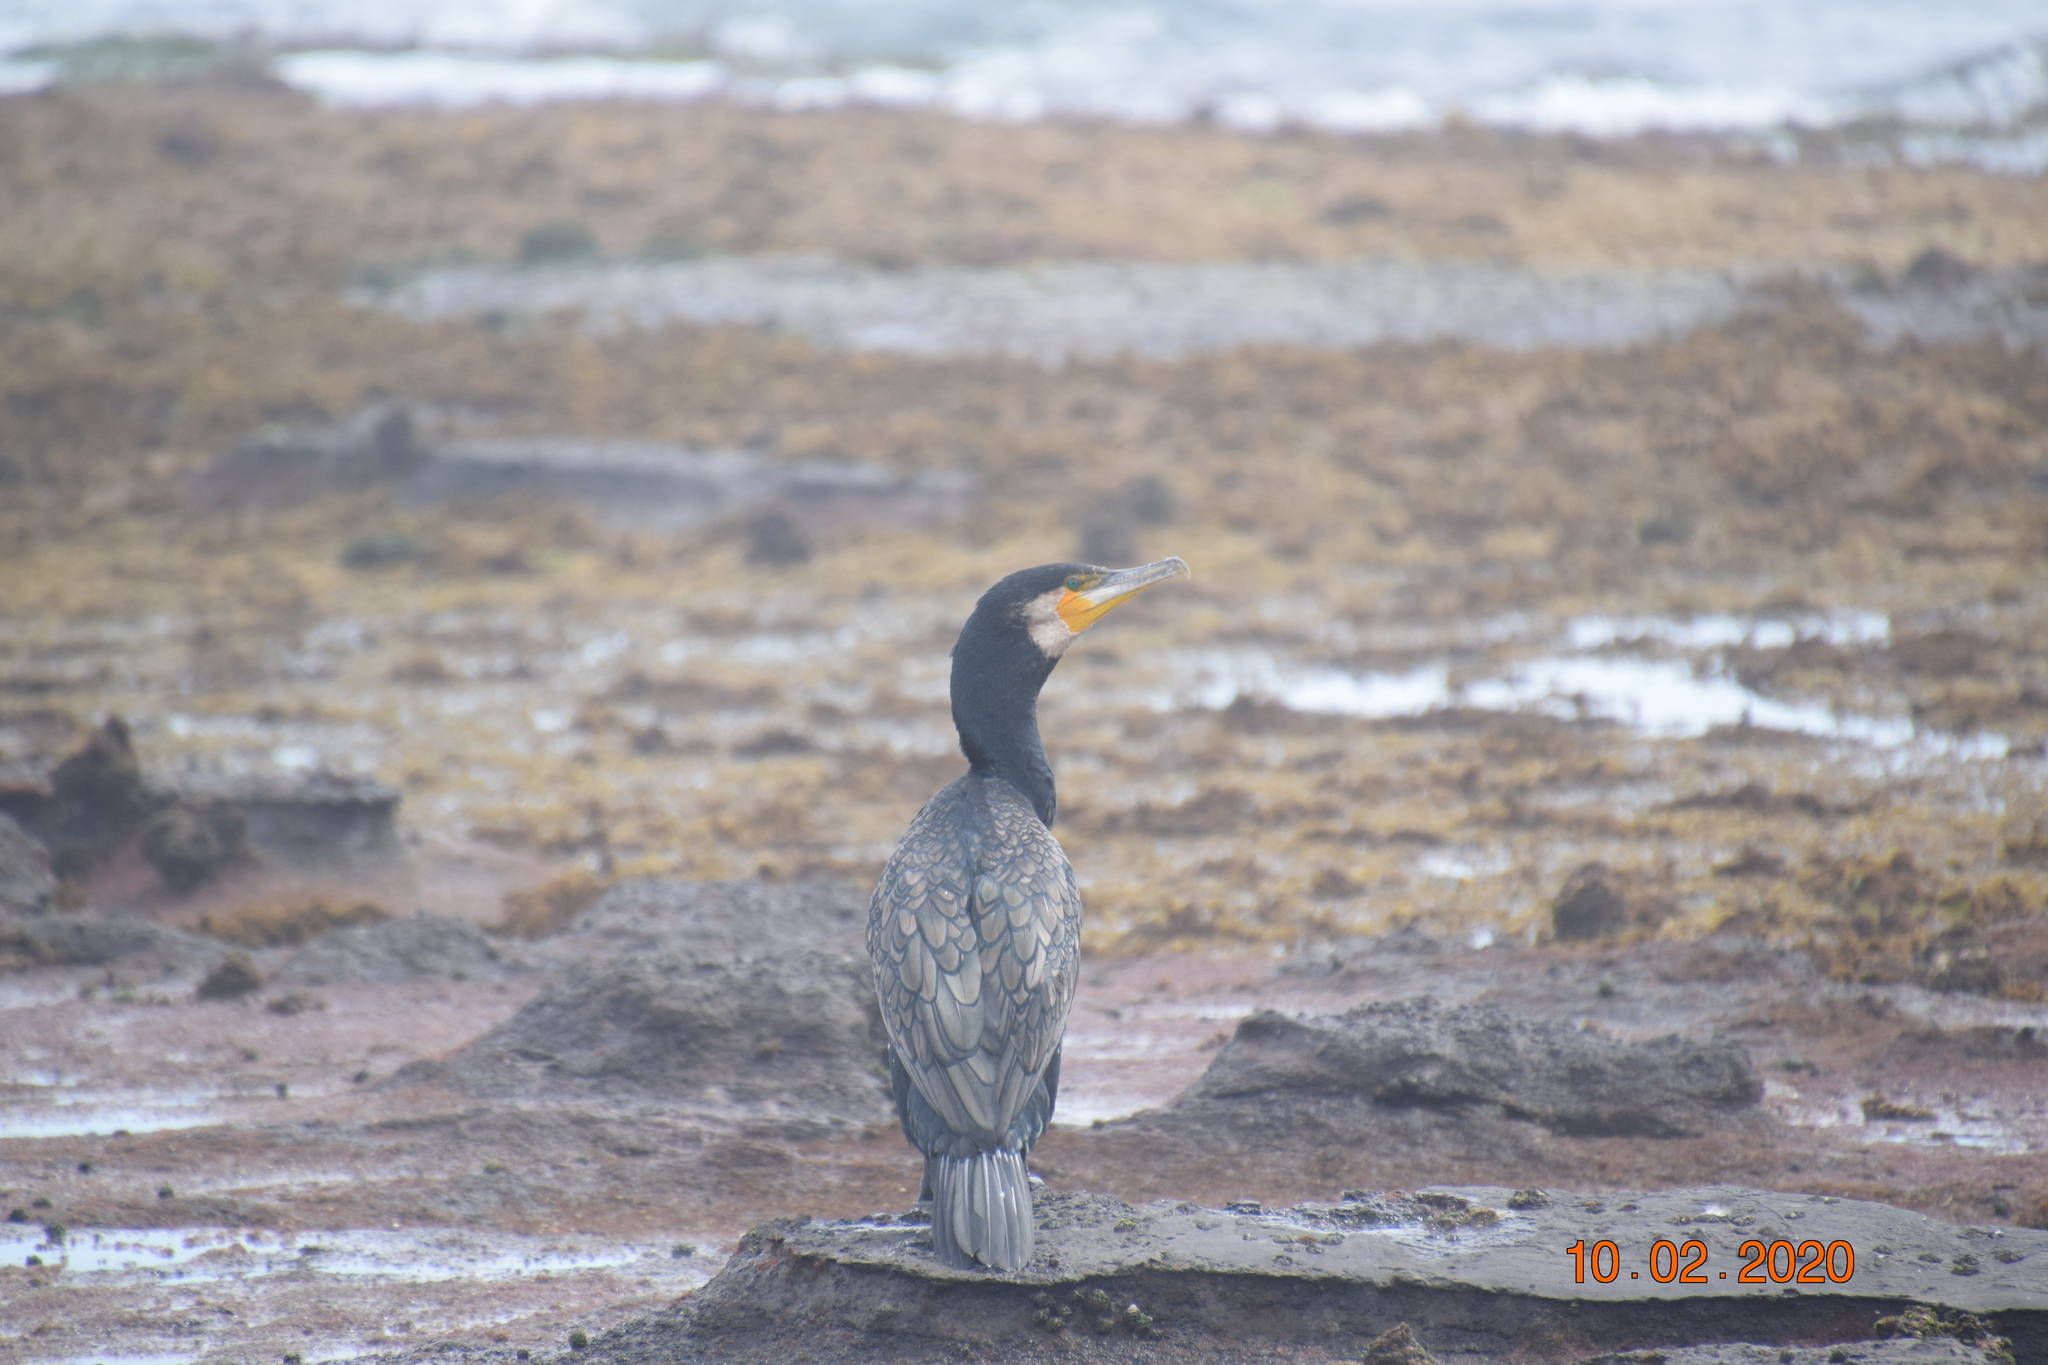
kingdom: Animalia
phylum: Chordata
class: Aves
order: Suliformes
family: Phalacrocoracidae
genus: Phalacrocorax
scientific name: Phalacrocorax carbo
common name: Great cormorant
